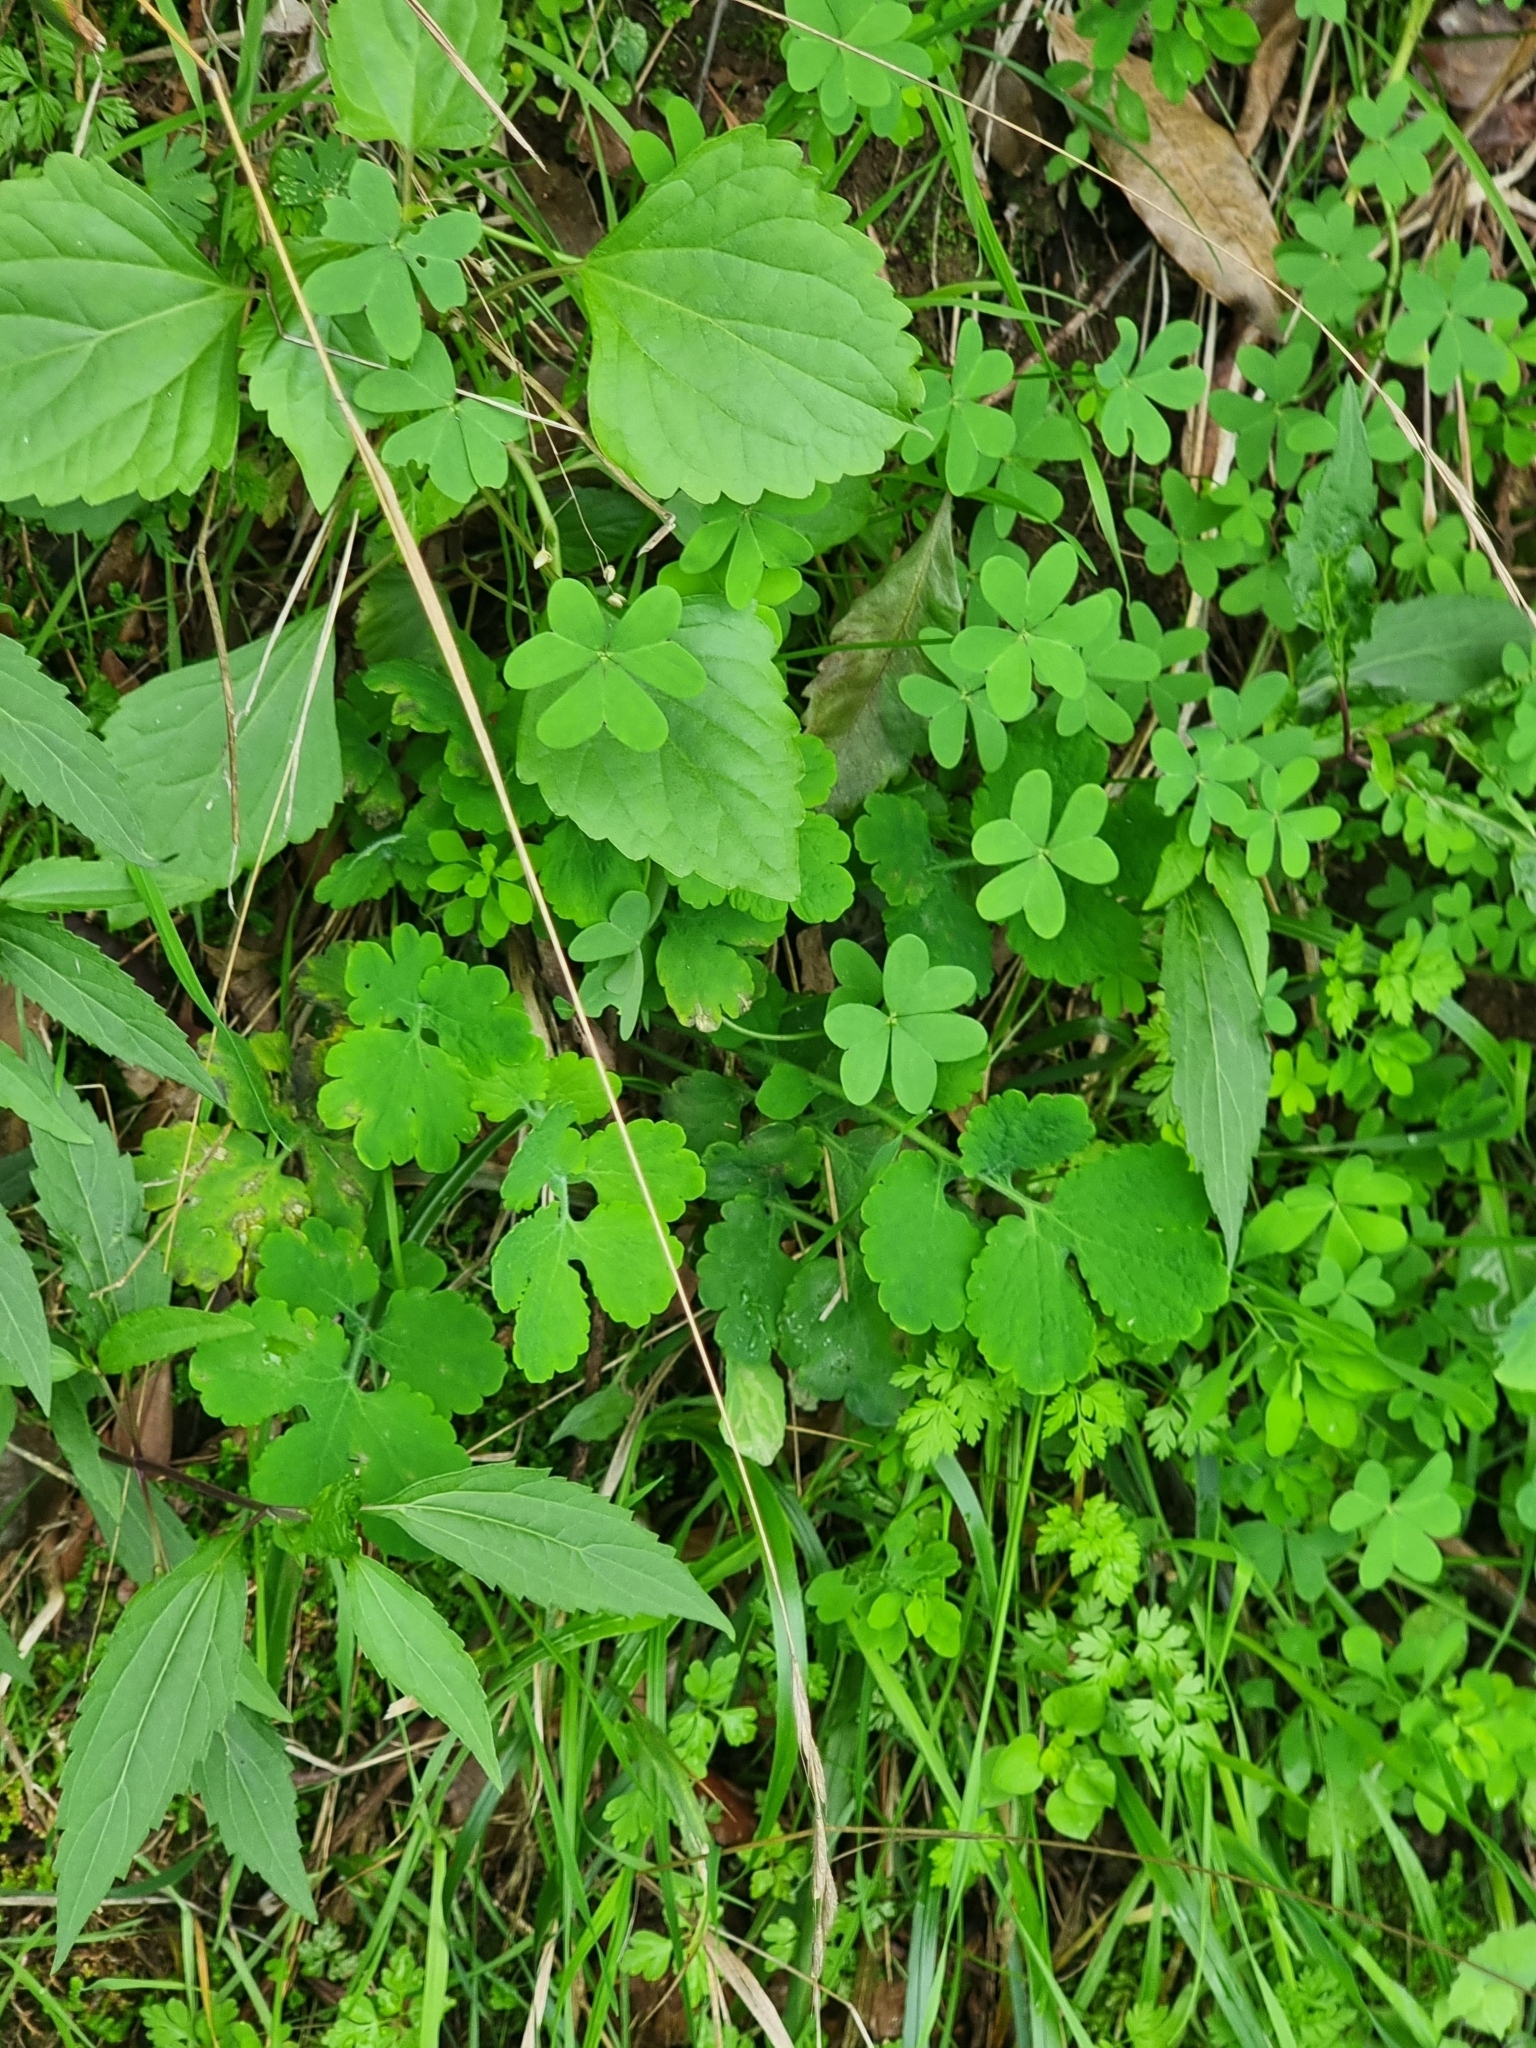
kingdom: Plantae
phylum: Tracheophyta
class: Magnoliopsida
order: Ranunculales
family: Papaveraceae
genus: Chelidonium
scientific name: Chelidonium majus
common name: Greater celandine
